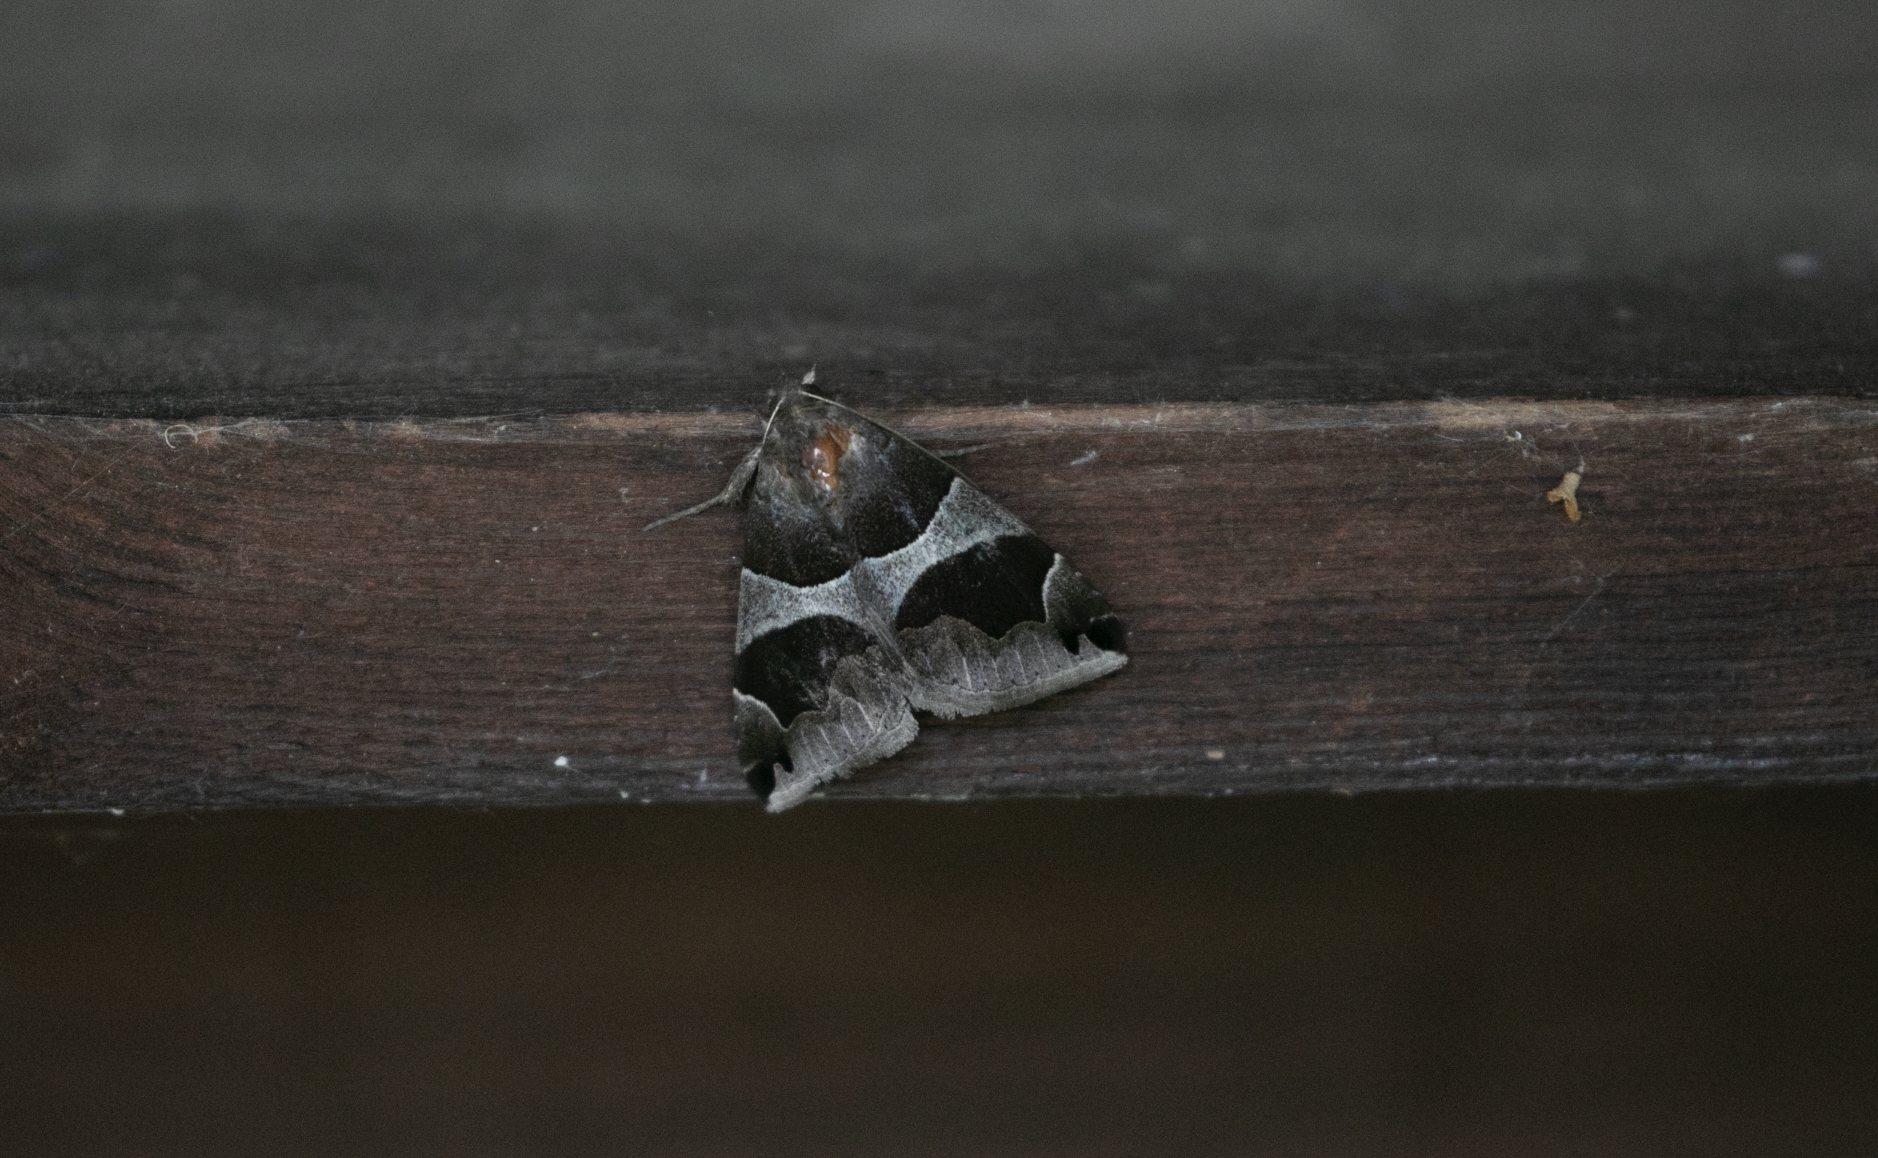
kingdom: Animalia
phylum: Arthropoda
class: Insecta
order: Lepidoptera
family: Erebidae
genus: Dysgonia
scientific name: Dysgonia algira
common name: Passenger
